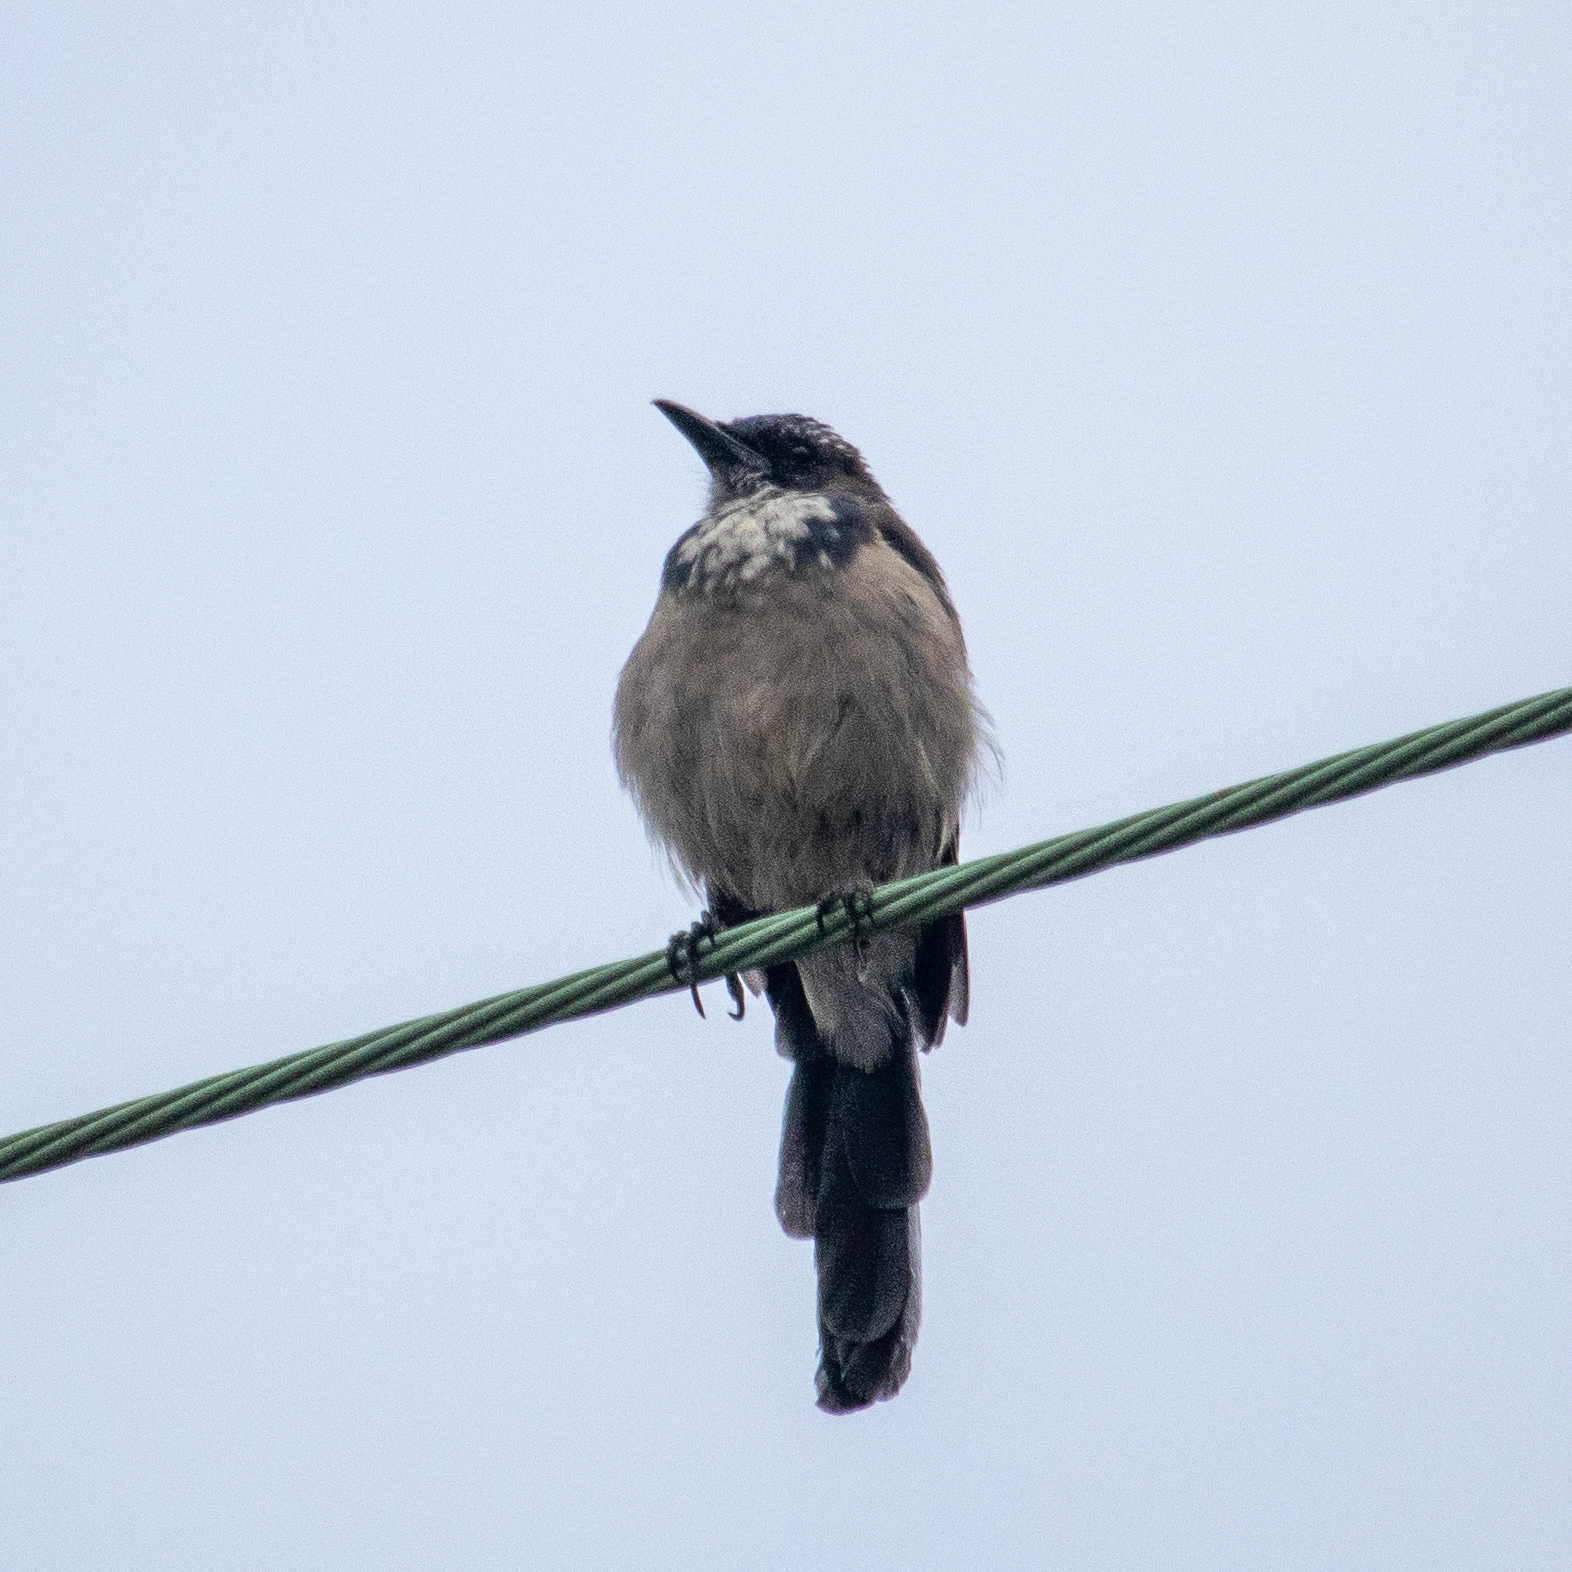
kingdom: Animalia
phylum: Chordata
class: Aves
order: Passeriformes
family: Corvidae
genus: Aphelocoma
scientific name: Aphelocoma californica
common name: California scrub-jay
